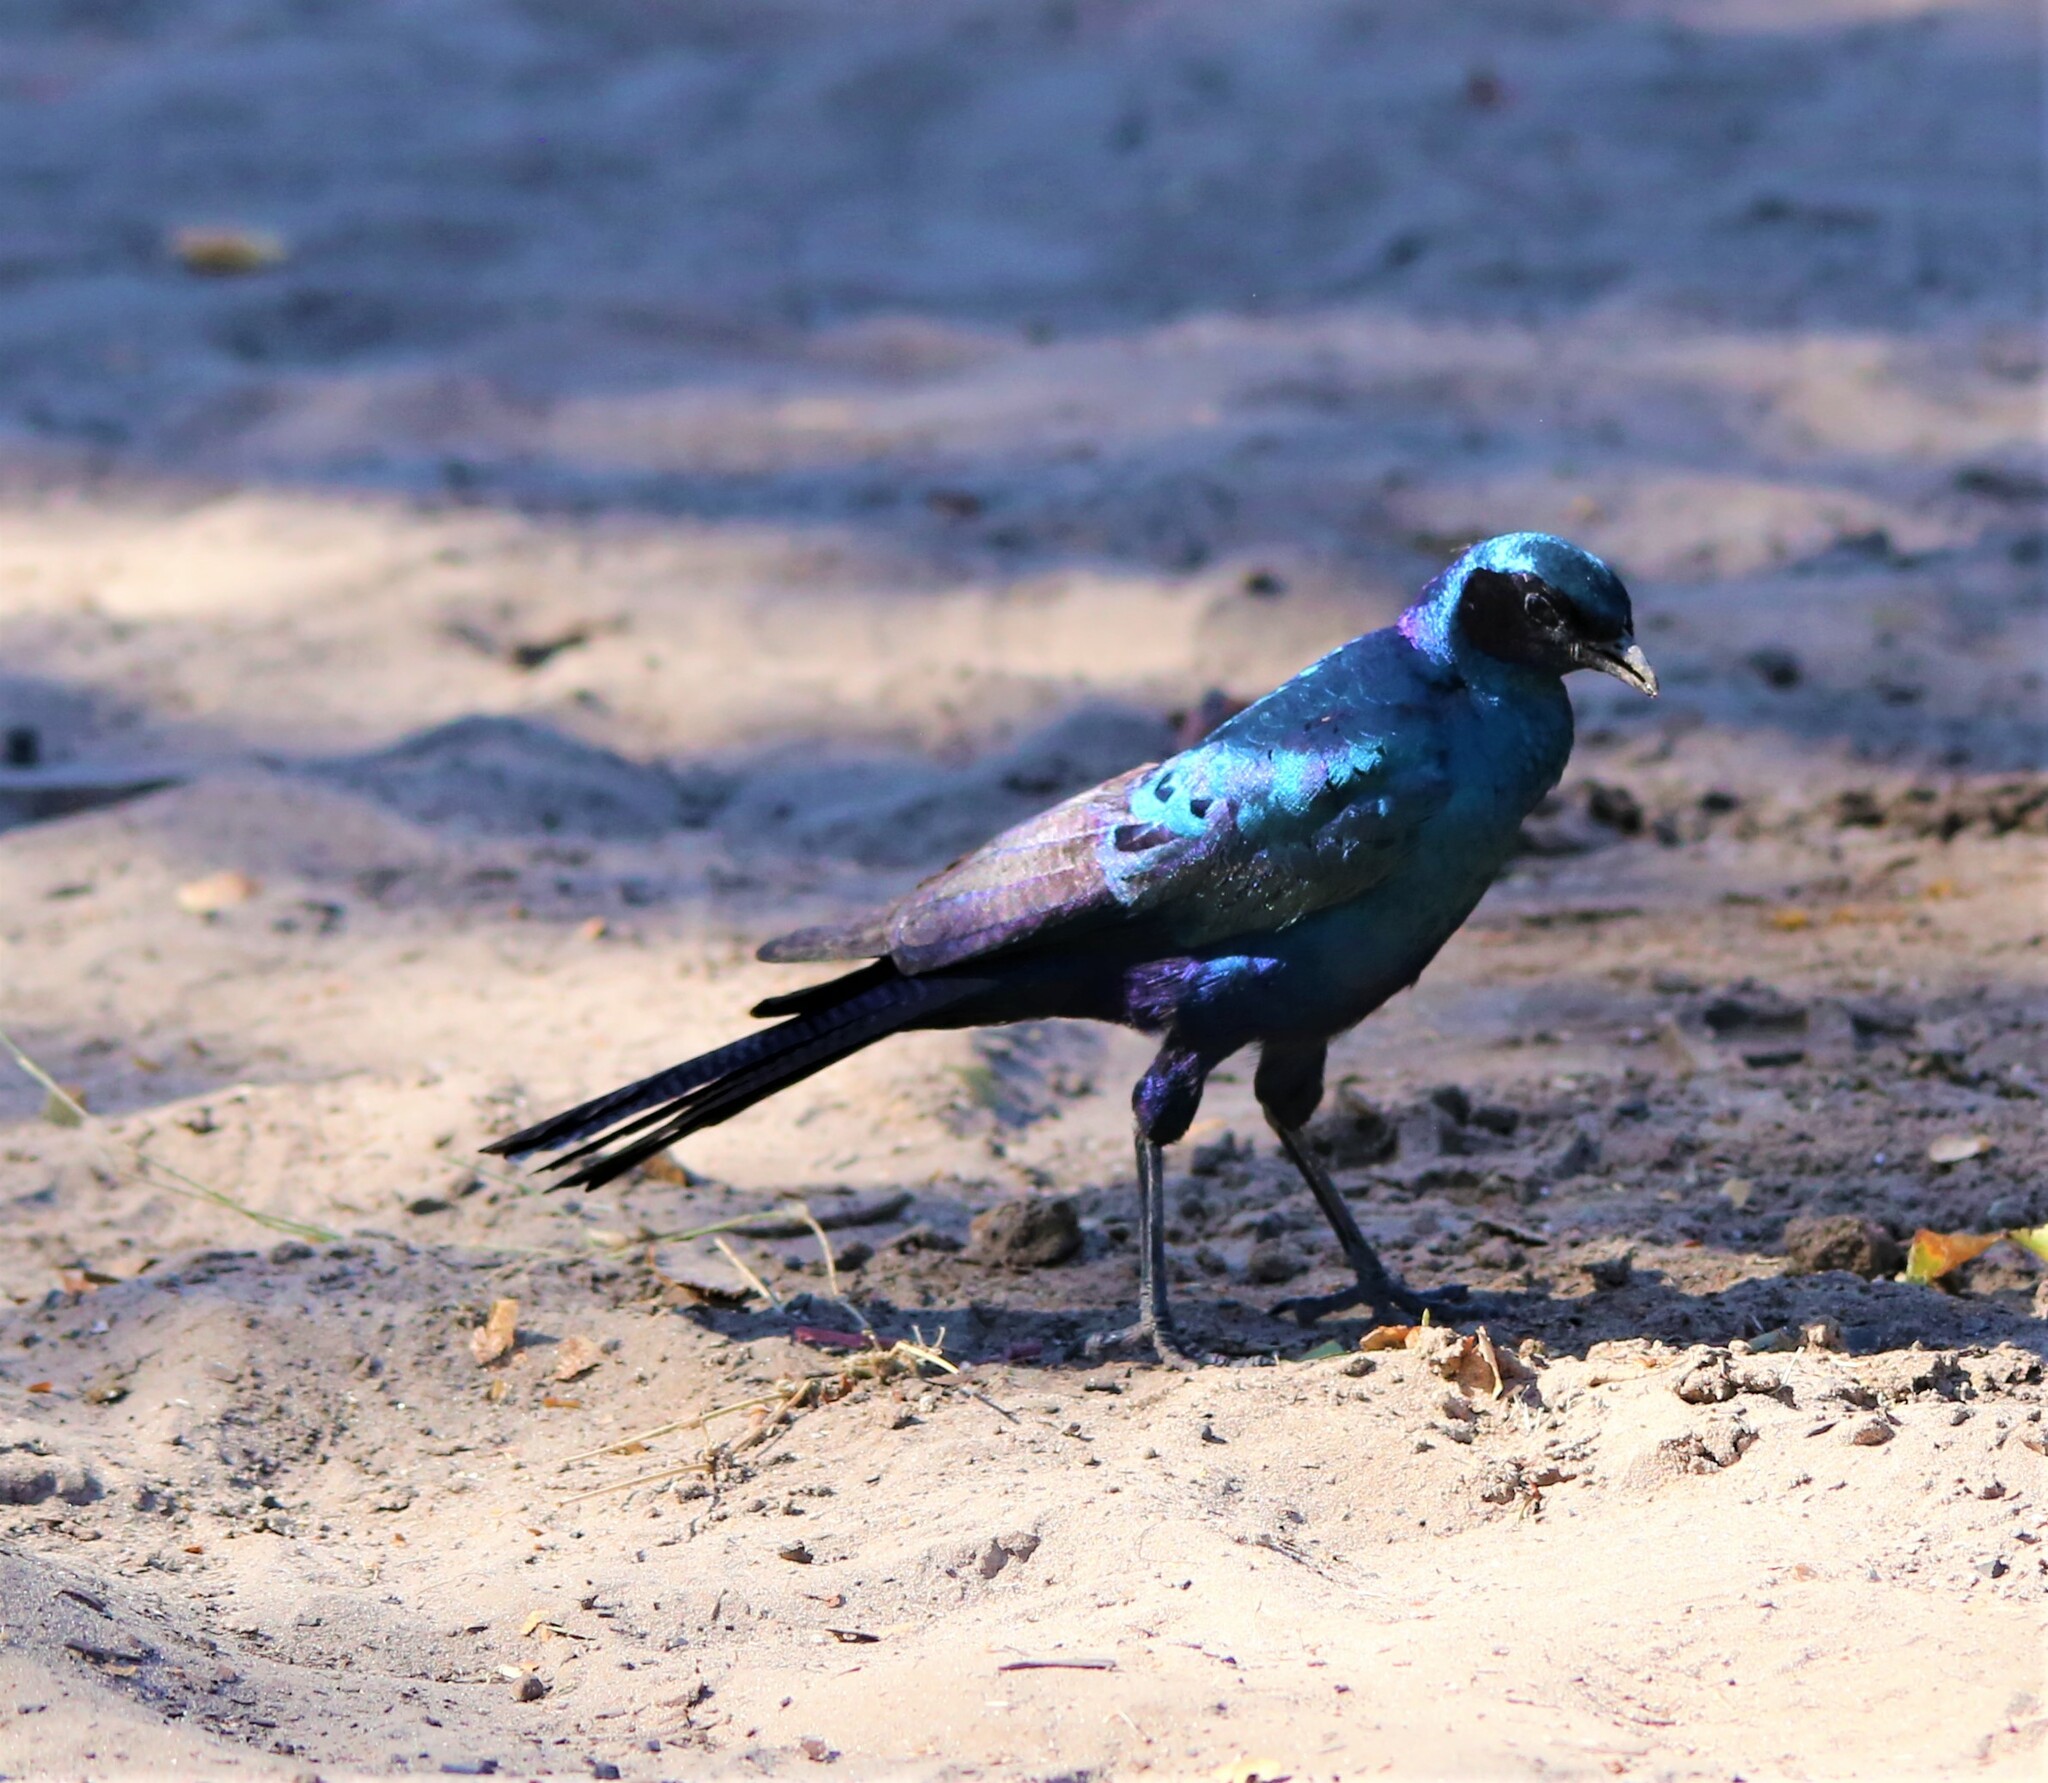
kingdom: Animalia
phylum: Chordata
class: Aves
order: Passeriformes
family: Sturnidae
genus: Lamprotornis
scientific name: Lamprotornis australis
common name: Burchell's starling
